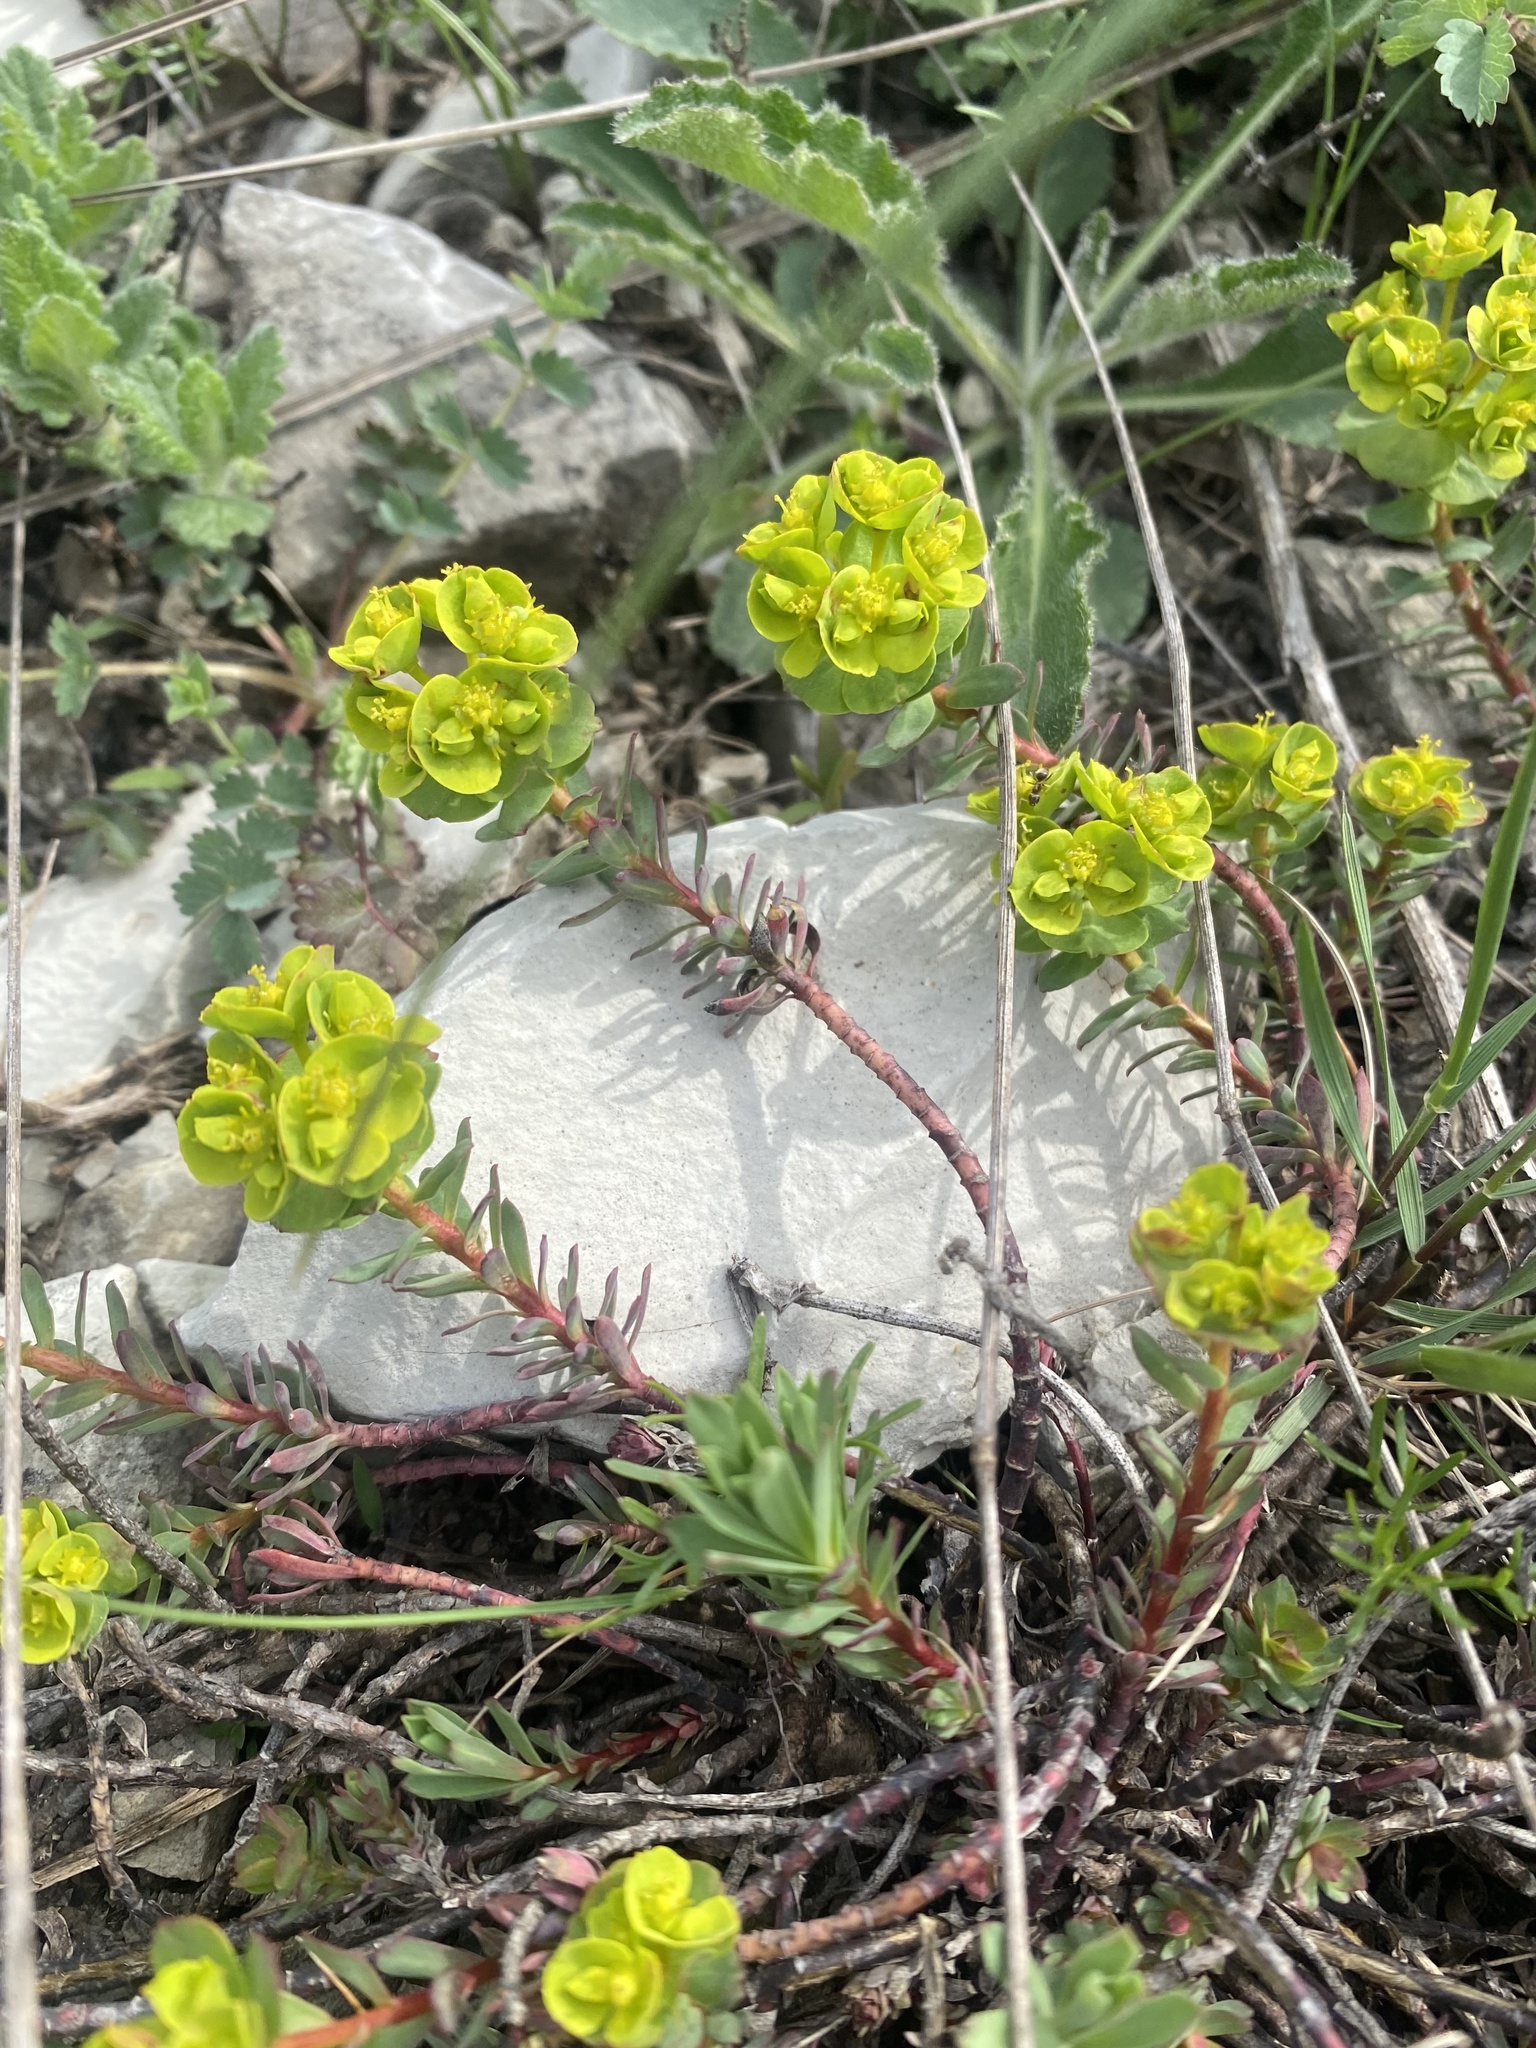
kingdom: Plantae
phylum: Tracheophyta
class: Magnoliopsida
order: Malpighiales
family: Euphorbiaceae
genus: Euphorbia
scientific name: Euphorbia petrophila
